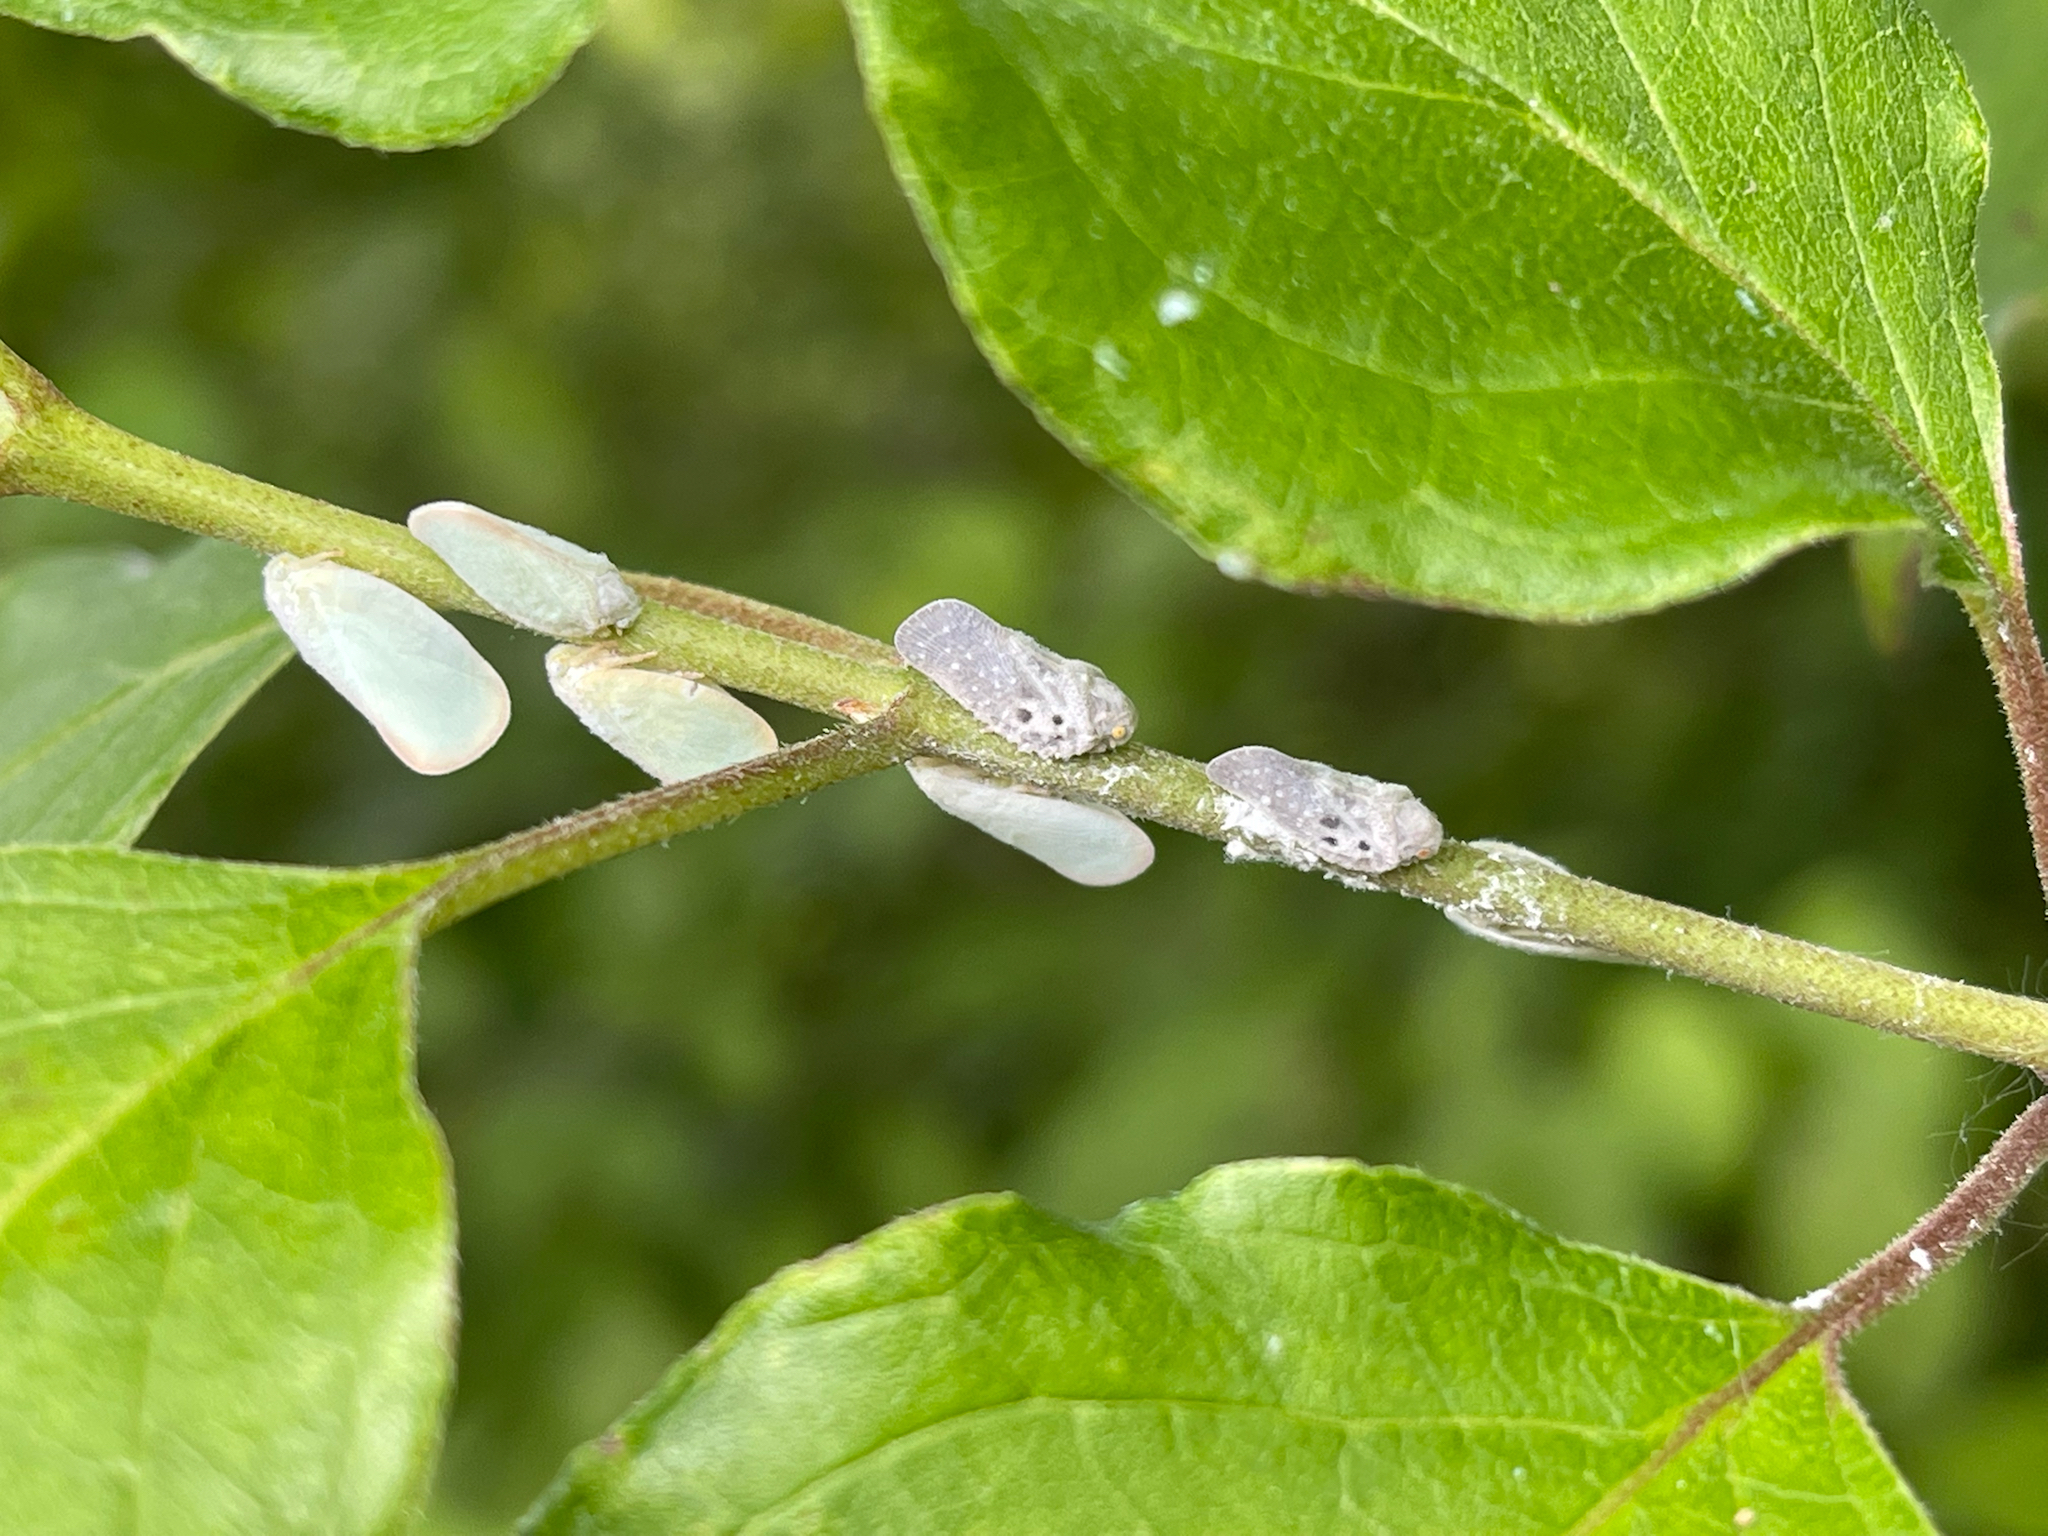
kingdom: Animalia
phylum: Arthropoda
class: Insecta
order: Hemiptera
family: Flatidae
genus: Metcalfa
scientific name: Metcalfa pruinosa
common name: Citrus flatid planthopper
